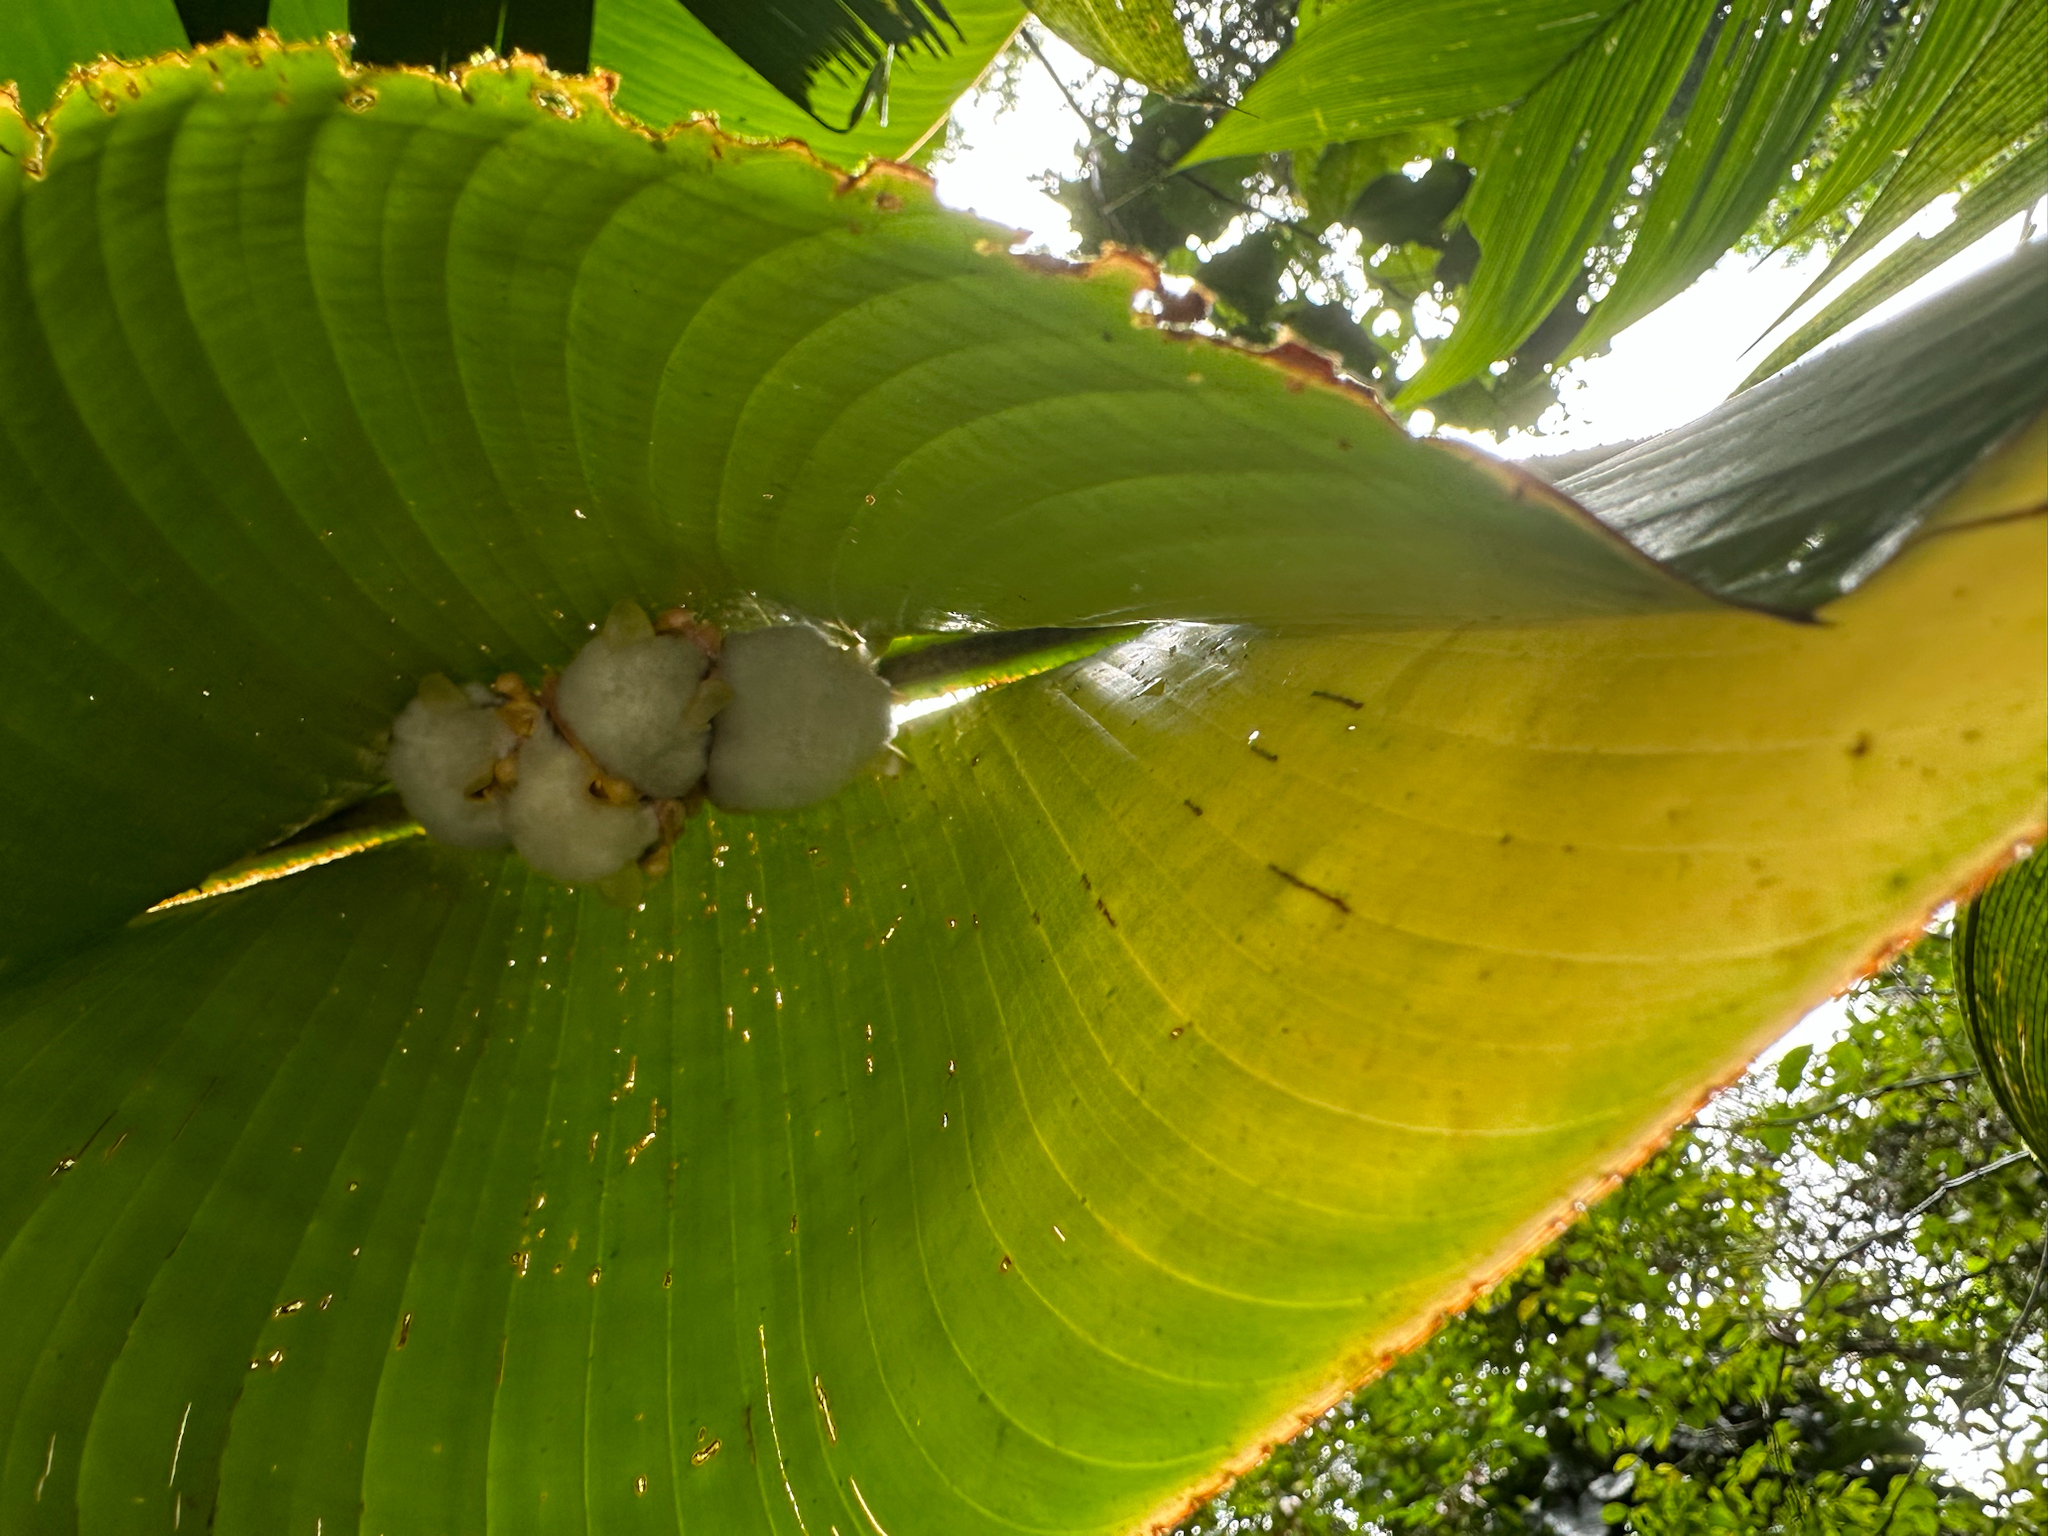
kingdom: Animalia
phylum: Chordata
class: Mammalia
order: Chiroptera
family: Phyllostomidae
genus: Ectophylla
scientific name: Ectophylla alba
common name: Honduran white bat
